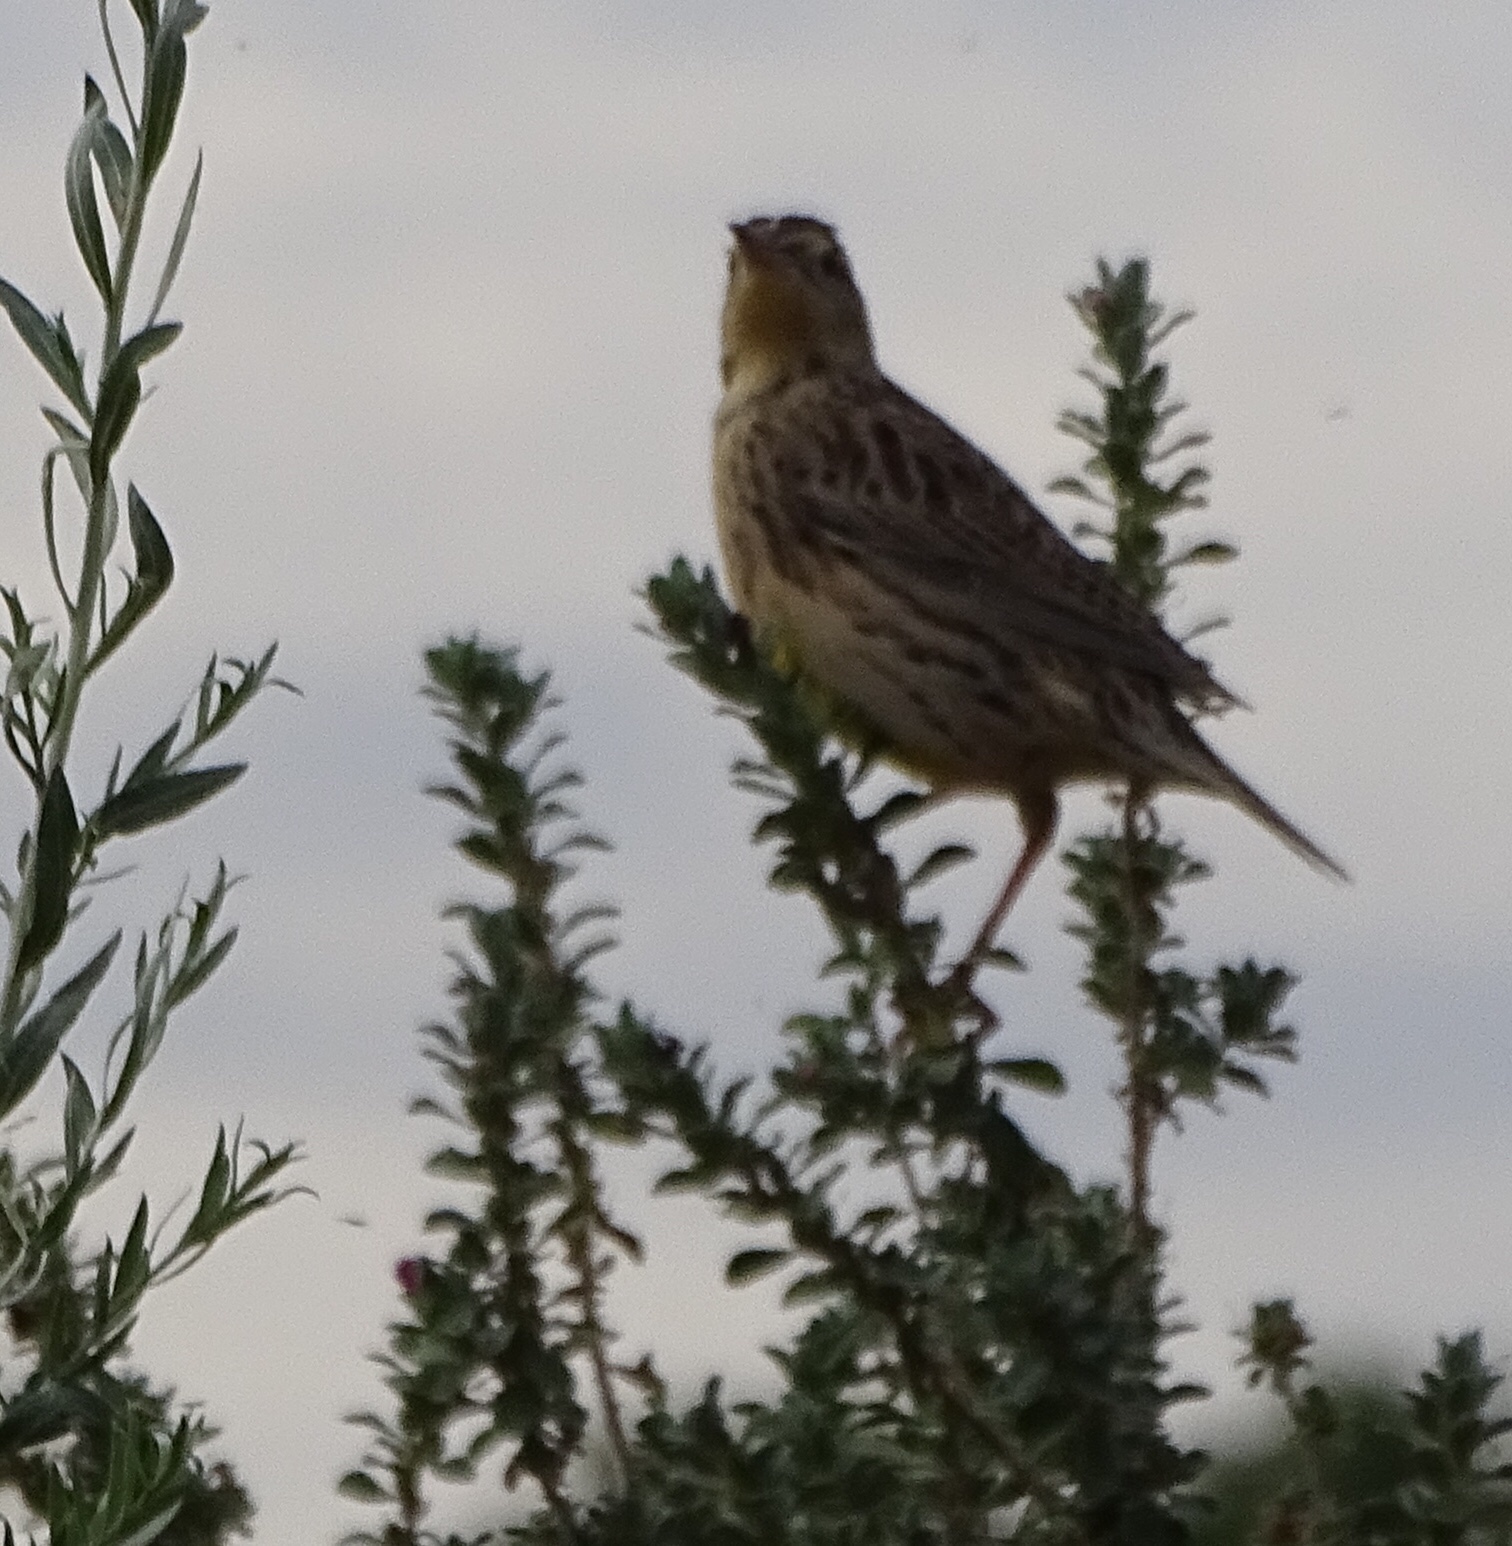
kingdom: Animalia
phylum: Chordata
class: Aves
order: Passeriformes
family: Icteridae
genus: Sturnella
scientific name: Sturnella neglecta
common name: Western meadowlark
